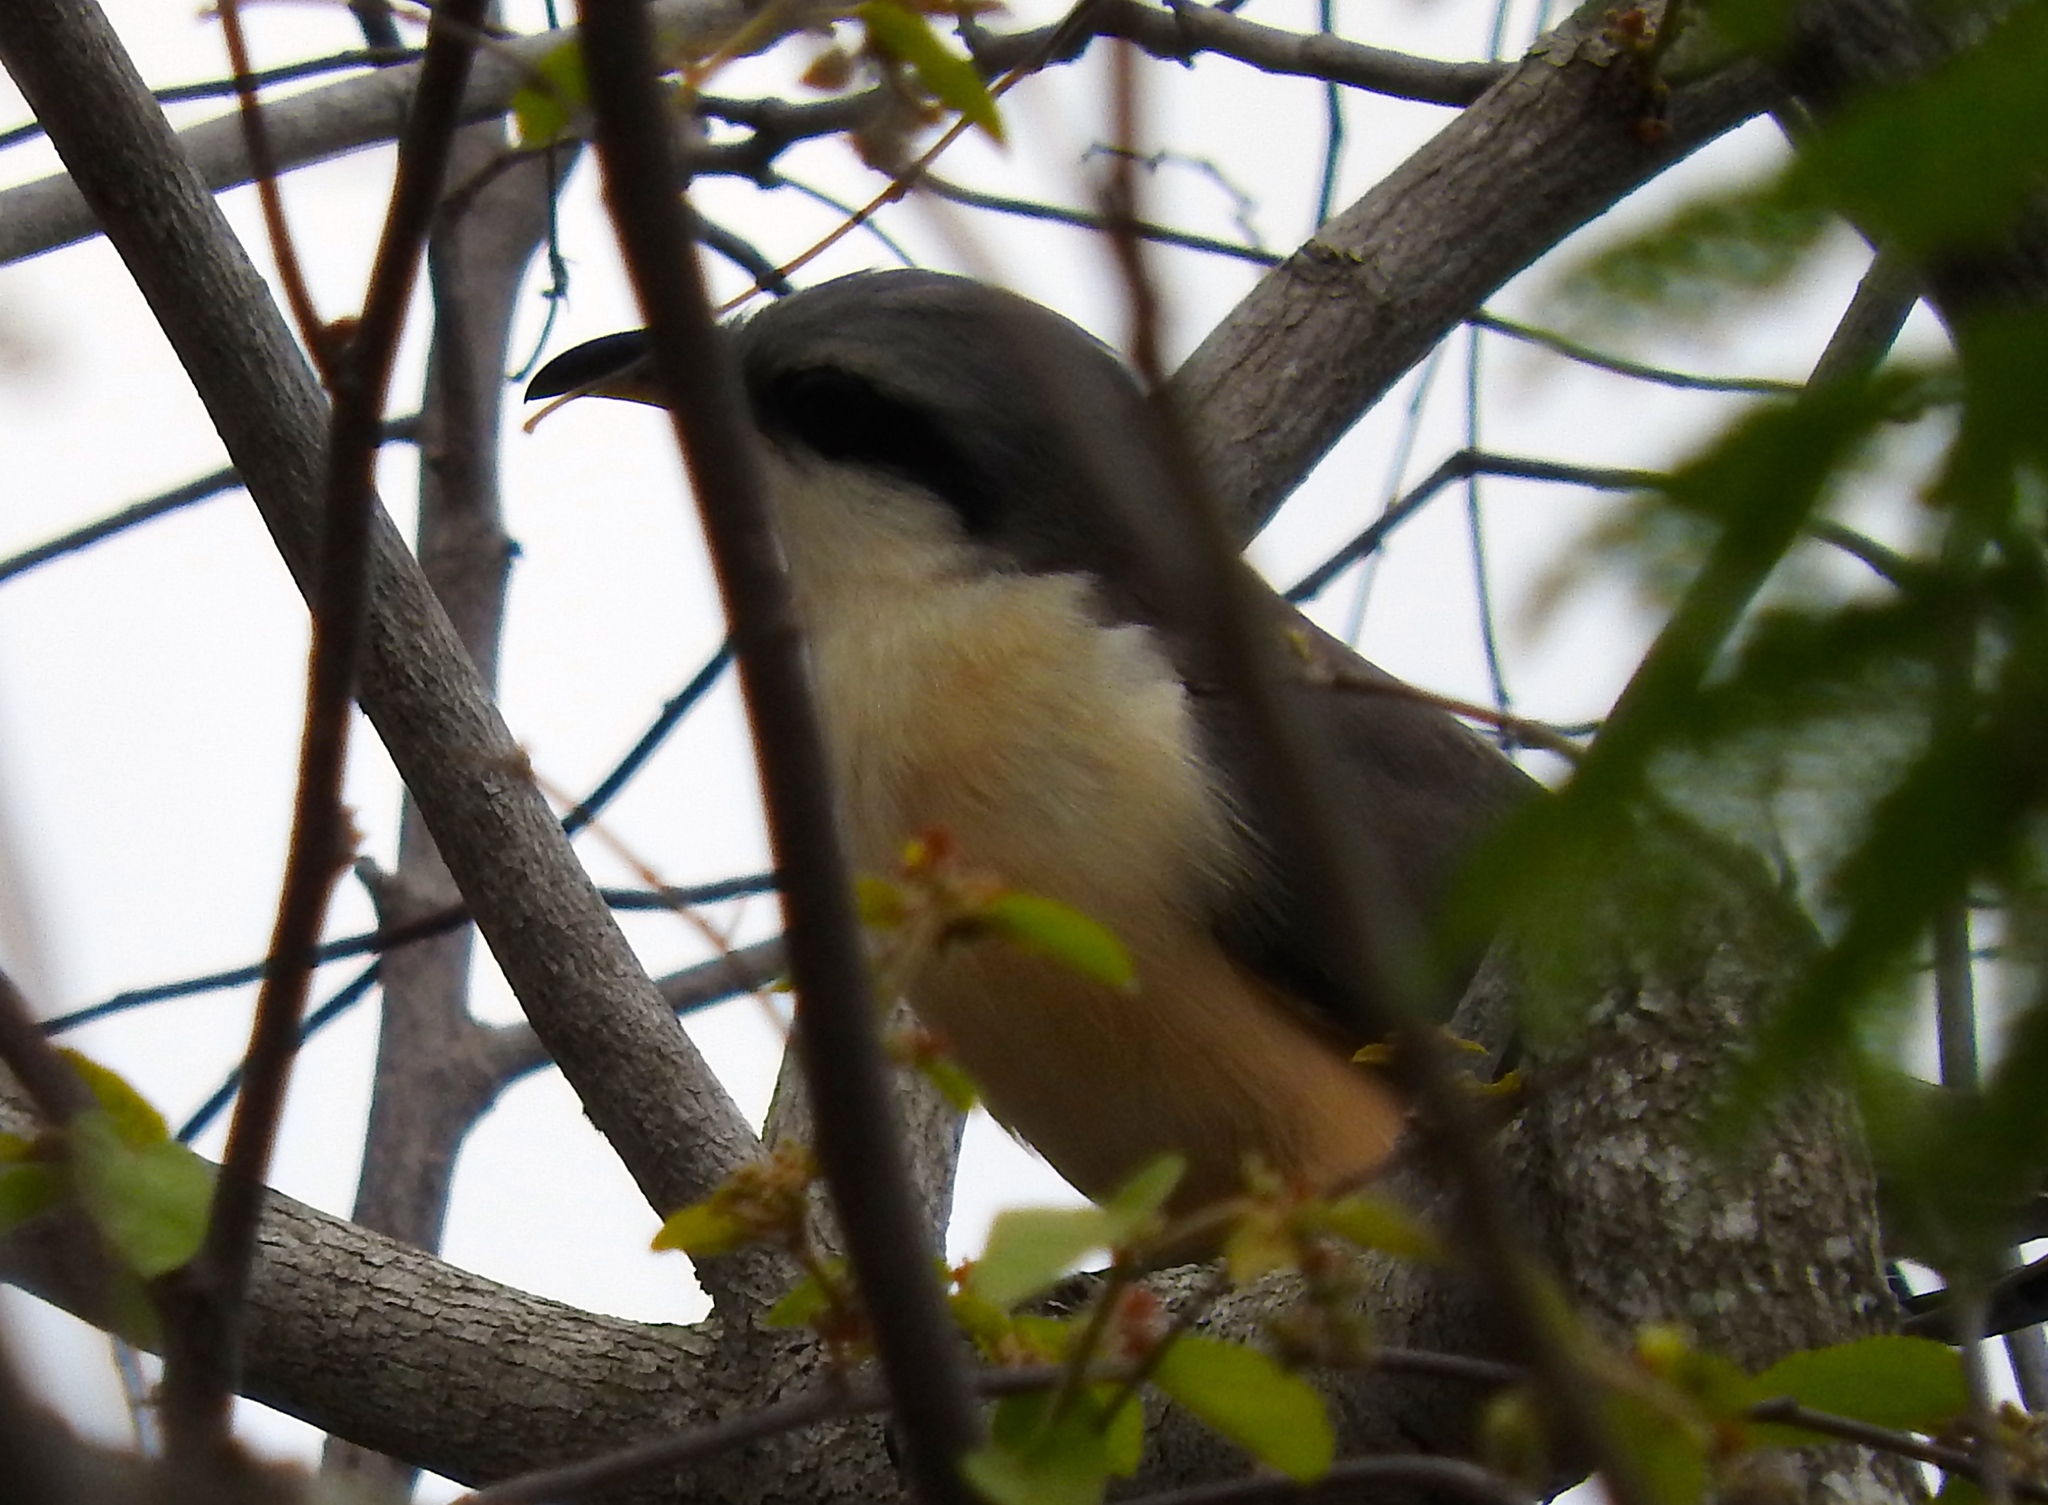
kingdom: Animalia
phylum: Chordata
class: Aves
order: Cuculiformes
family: Cuculidae
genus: Coccyzus
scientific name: Coccyzus minor
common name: Mangrove cuckoo
